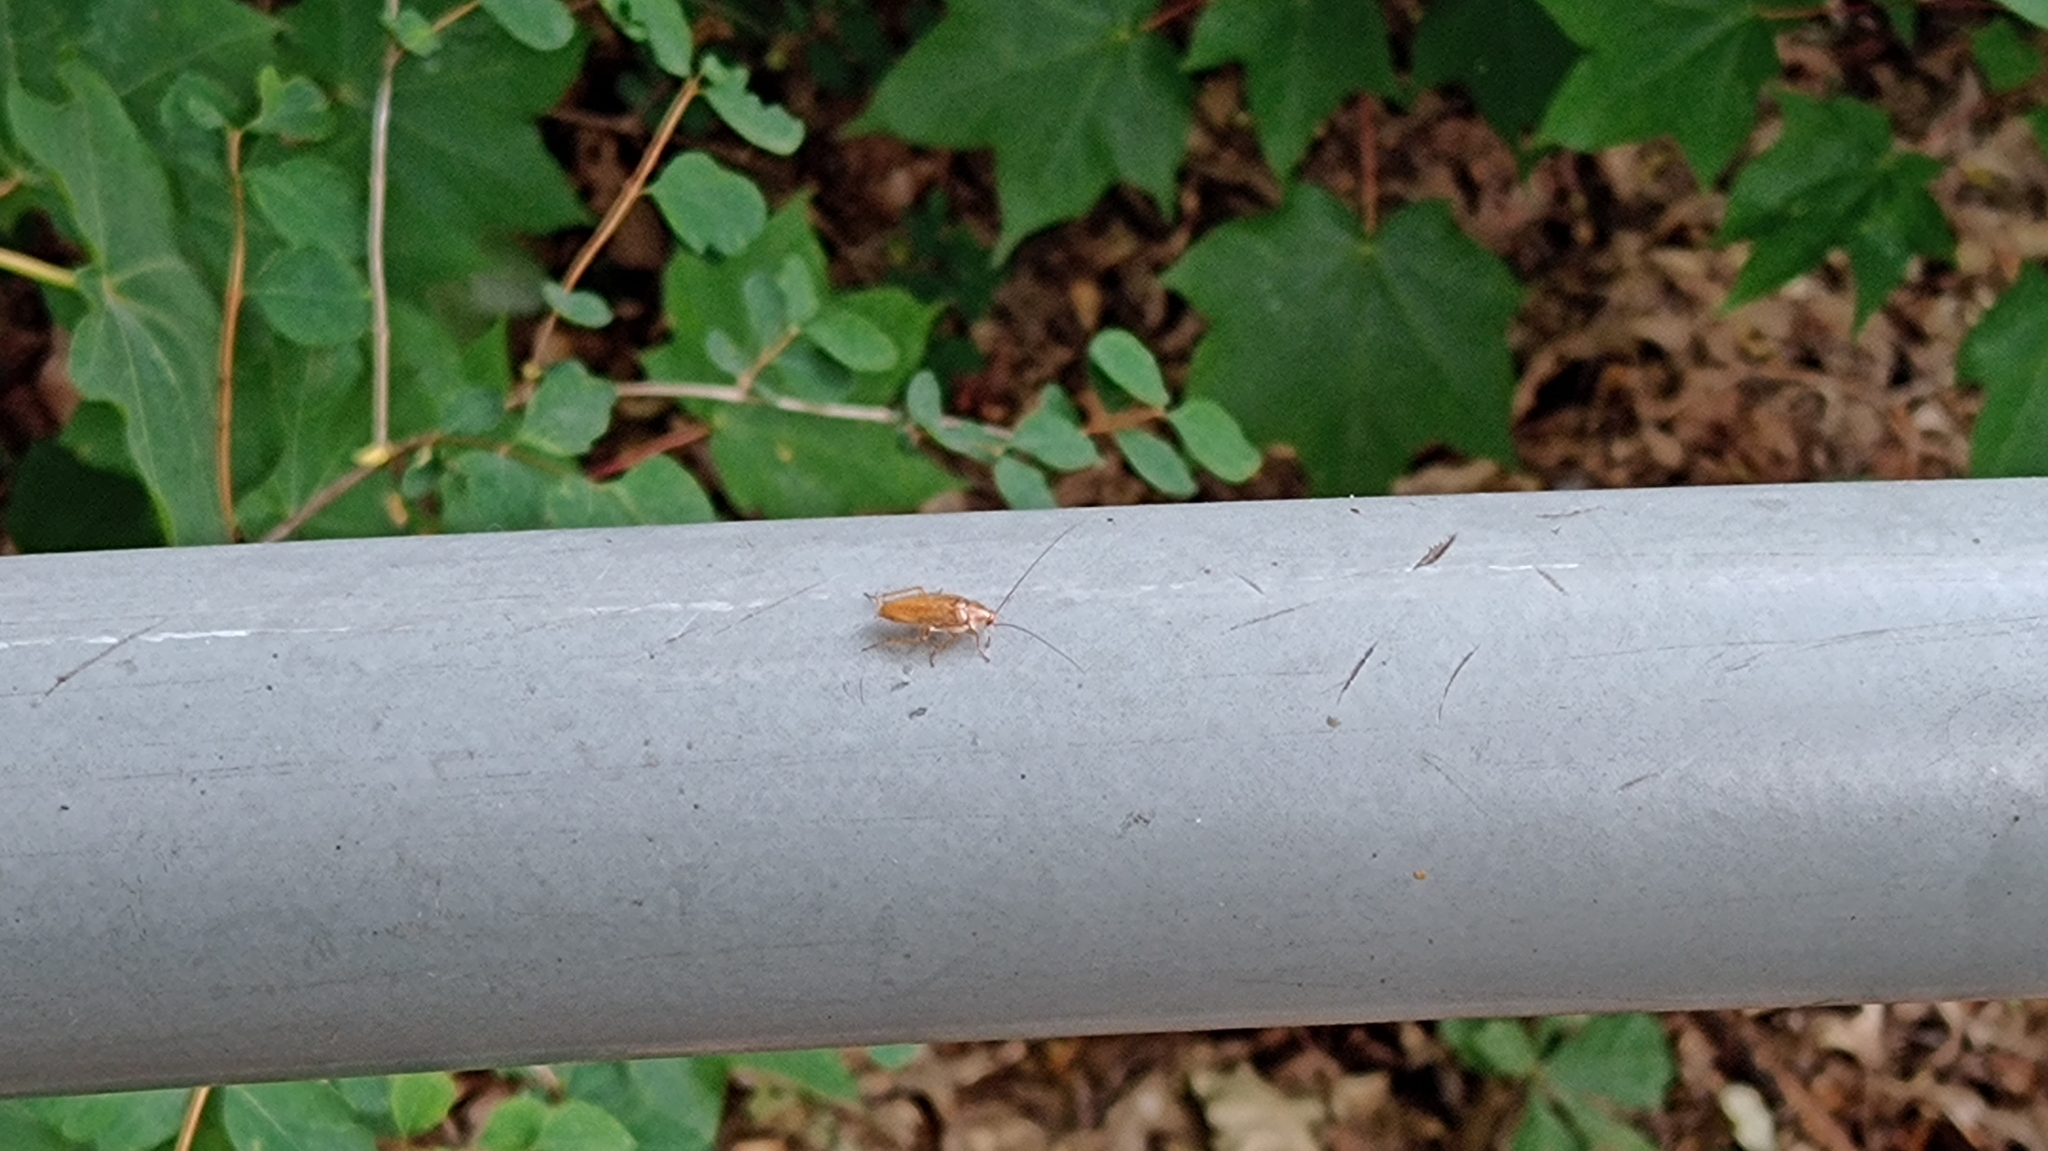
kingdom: Animalia
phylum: Arthropoda
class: Insecta
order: Blattodea
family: Ectobiidae
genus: Ectobius
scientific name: Ectobius pallidus
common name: Tawny cockroach
